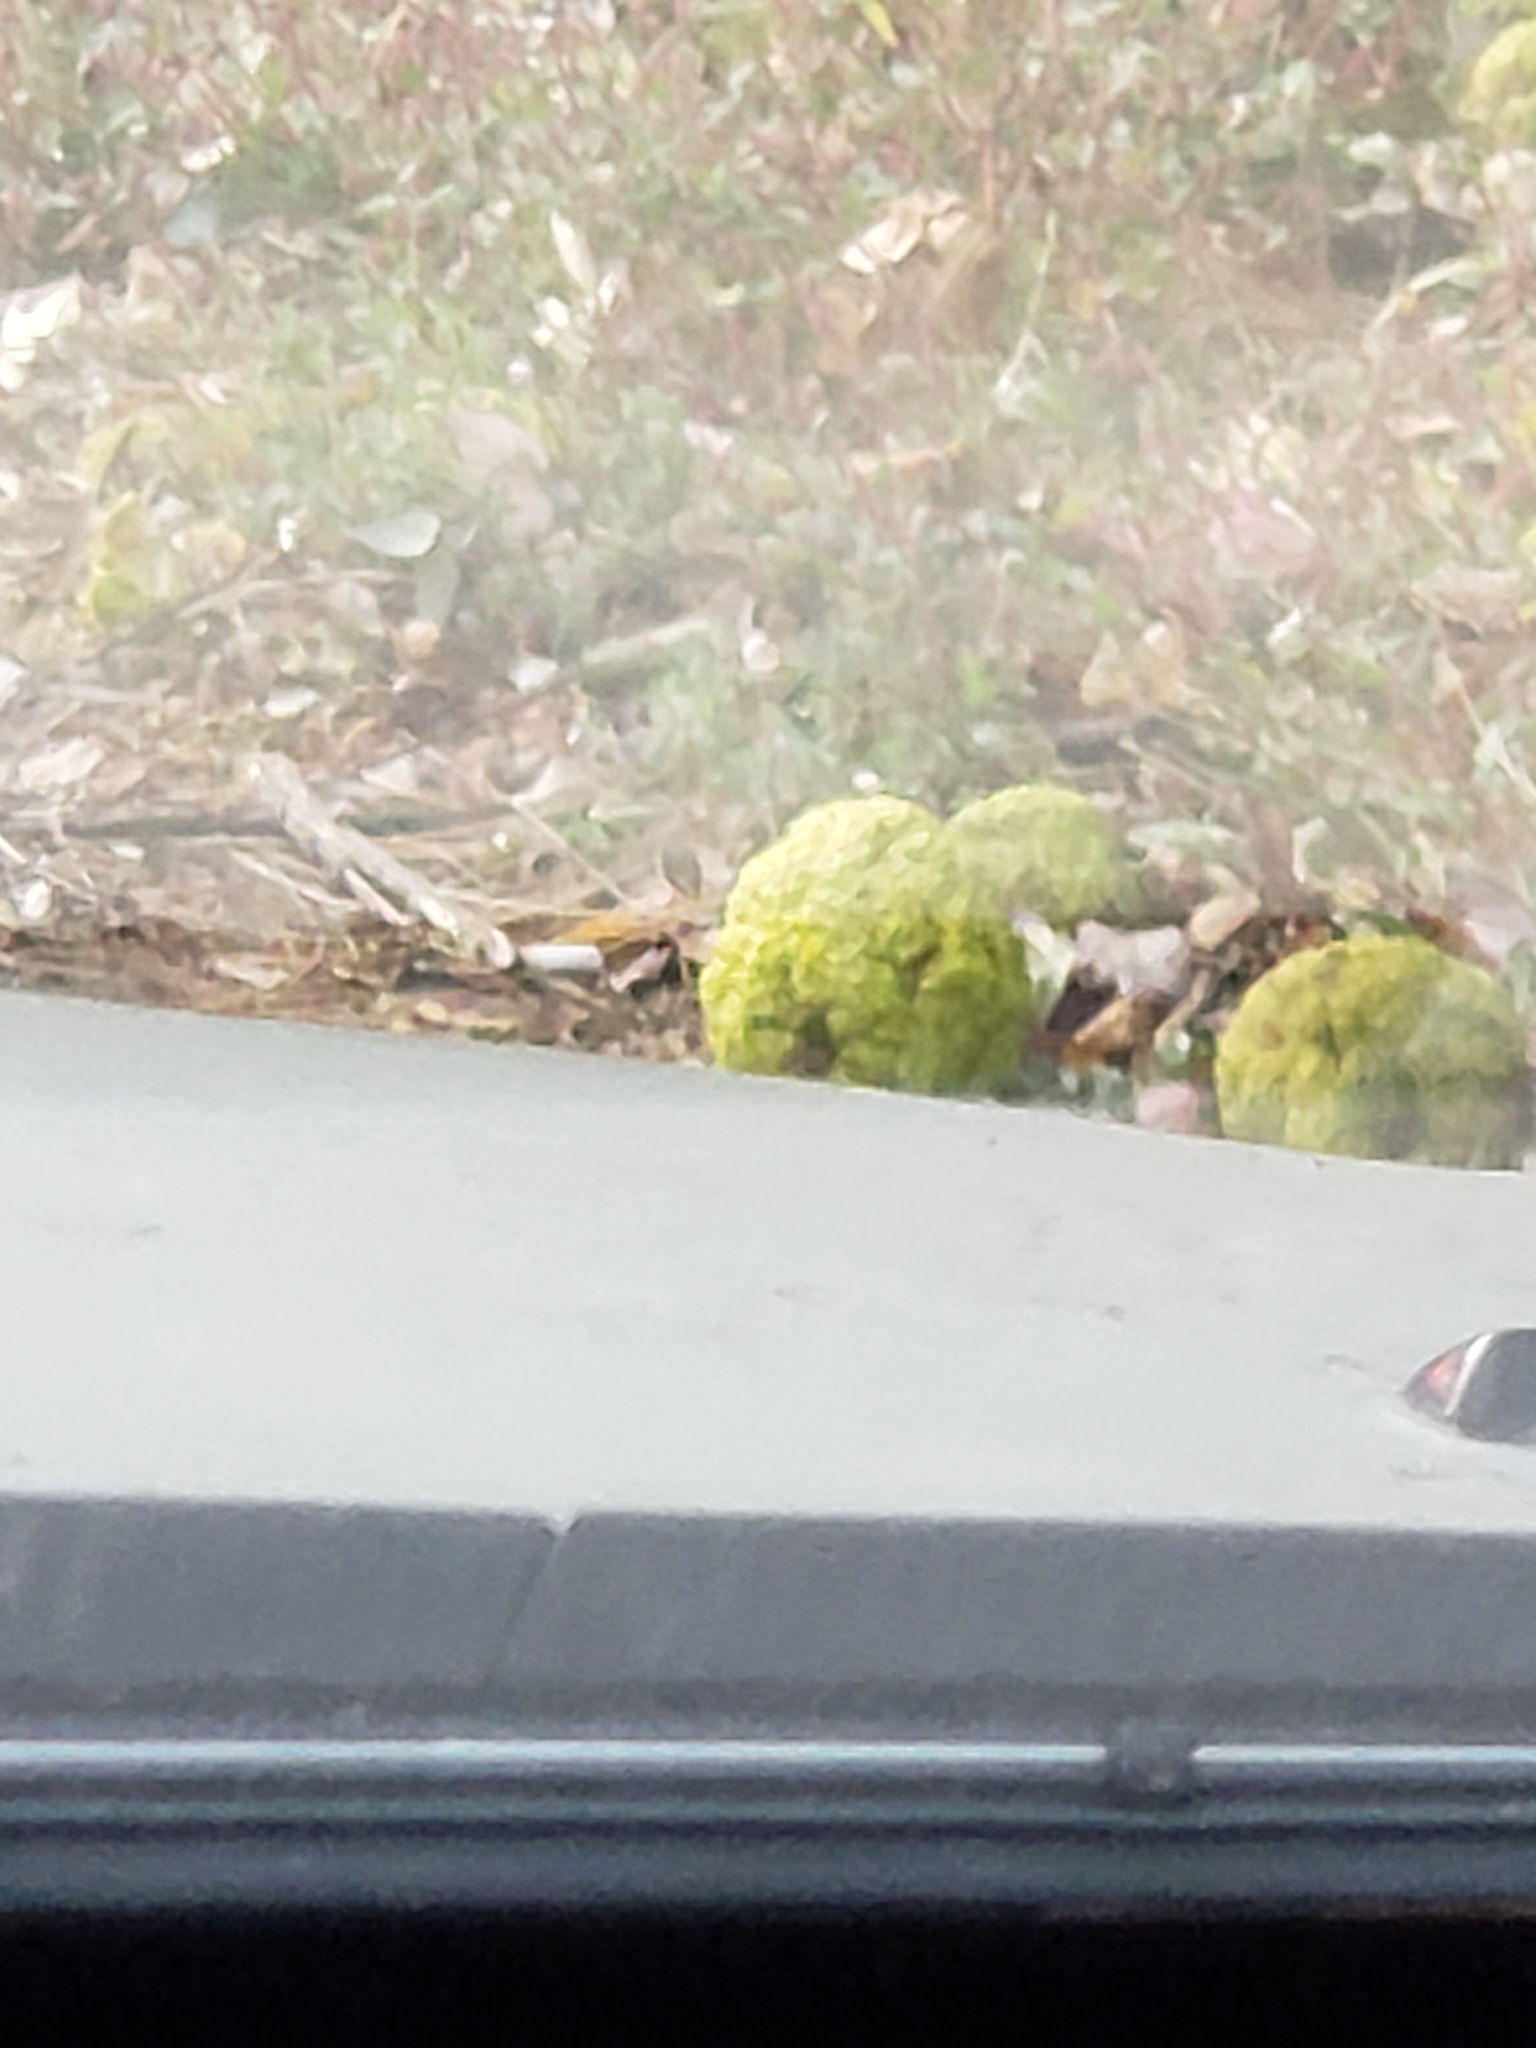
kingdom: Plantae
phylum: Tracheophyta
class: Magnoliopsida
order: Rosales
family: Moraceae
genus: Maclura
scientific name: Maclura pomifera
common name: Osage-orange
